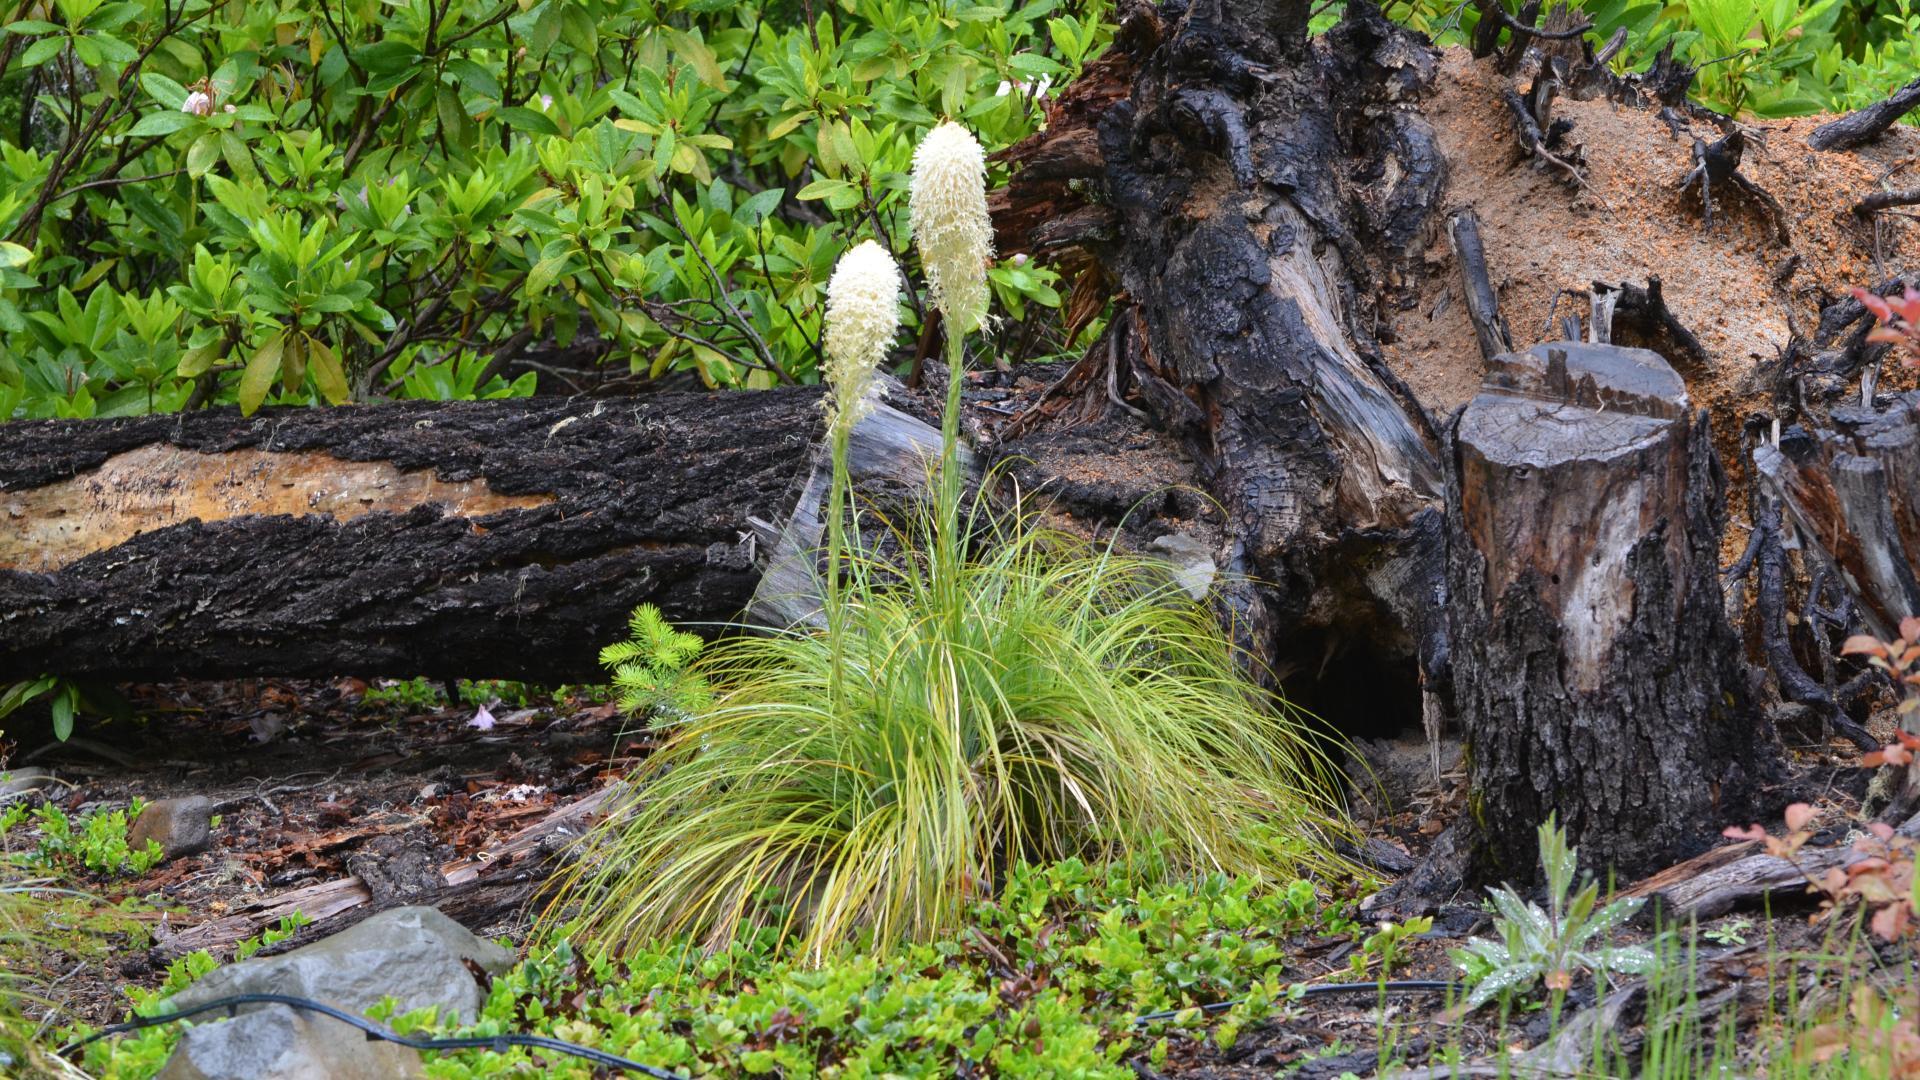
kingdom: Plantae
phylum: Tracheophyta
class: Liliopsida
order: Liliales
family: Melanthiaceae
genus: Xerophyllum
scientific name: Xerophyllum tenax
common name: Bear-grass
